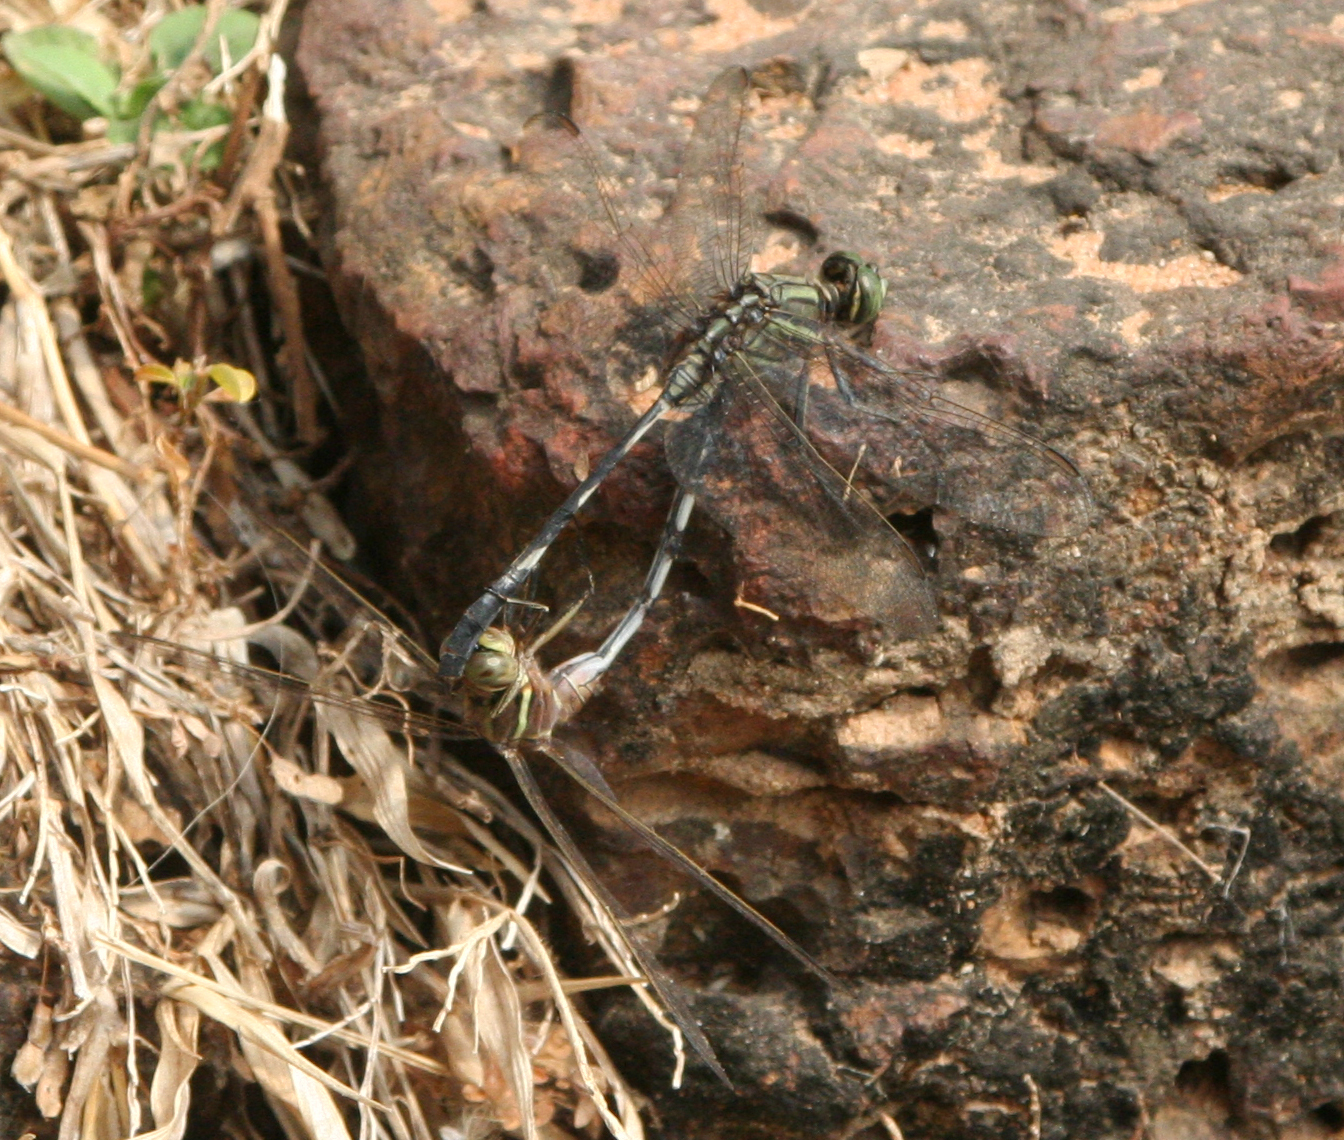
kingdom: Animalia
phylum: Arthropoda
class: Insecta
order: Odonata
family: Libellulidae
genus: Orthetrum
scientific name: Orthetrum sabina
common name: Slender skimmer
